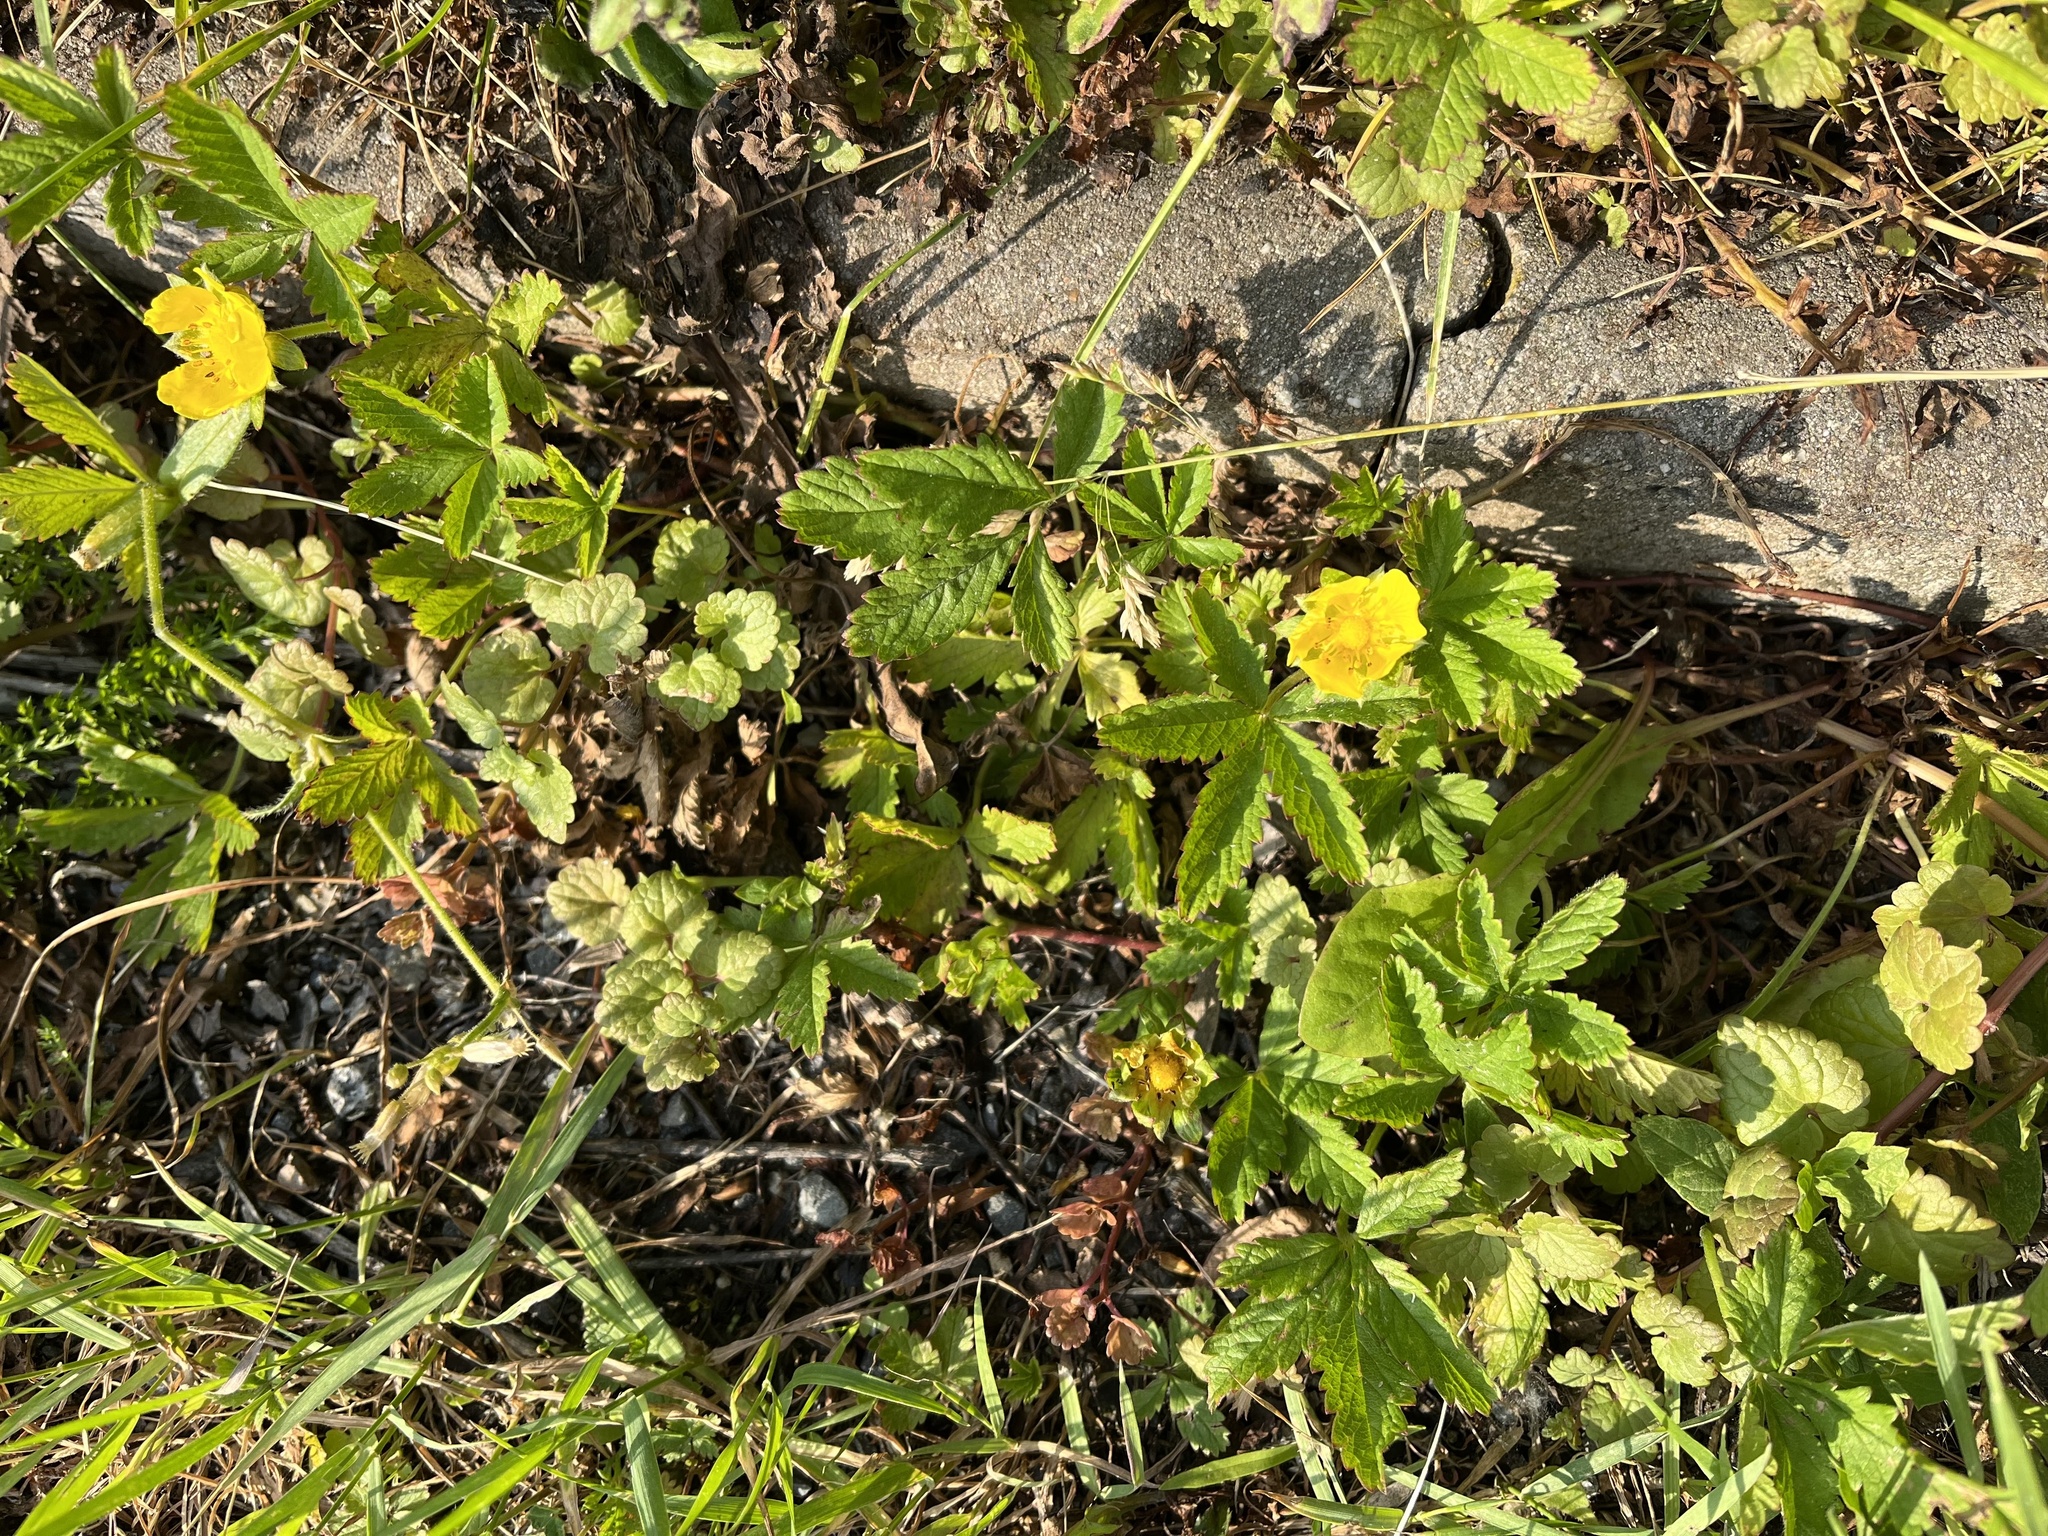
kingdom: Plantae
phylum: Tracheophyta
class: Magnoliopsida
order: Rosales
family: Rosaceae
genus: Potentilla
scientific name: Potentilla reptans
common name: Creeping cinquefoil
